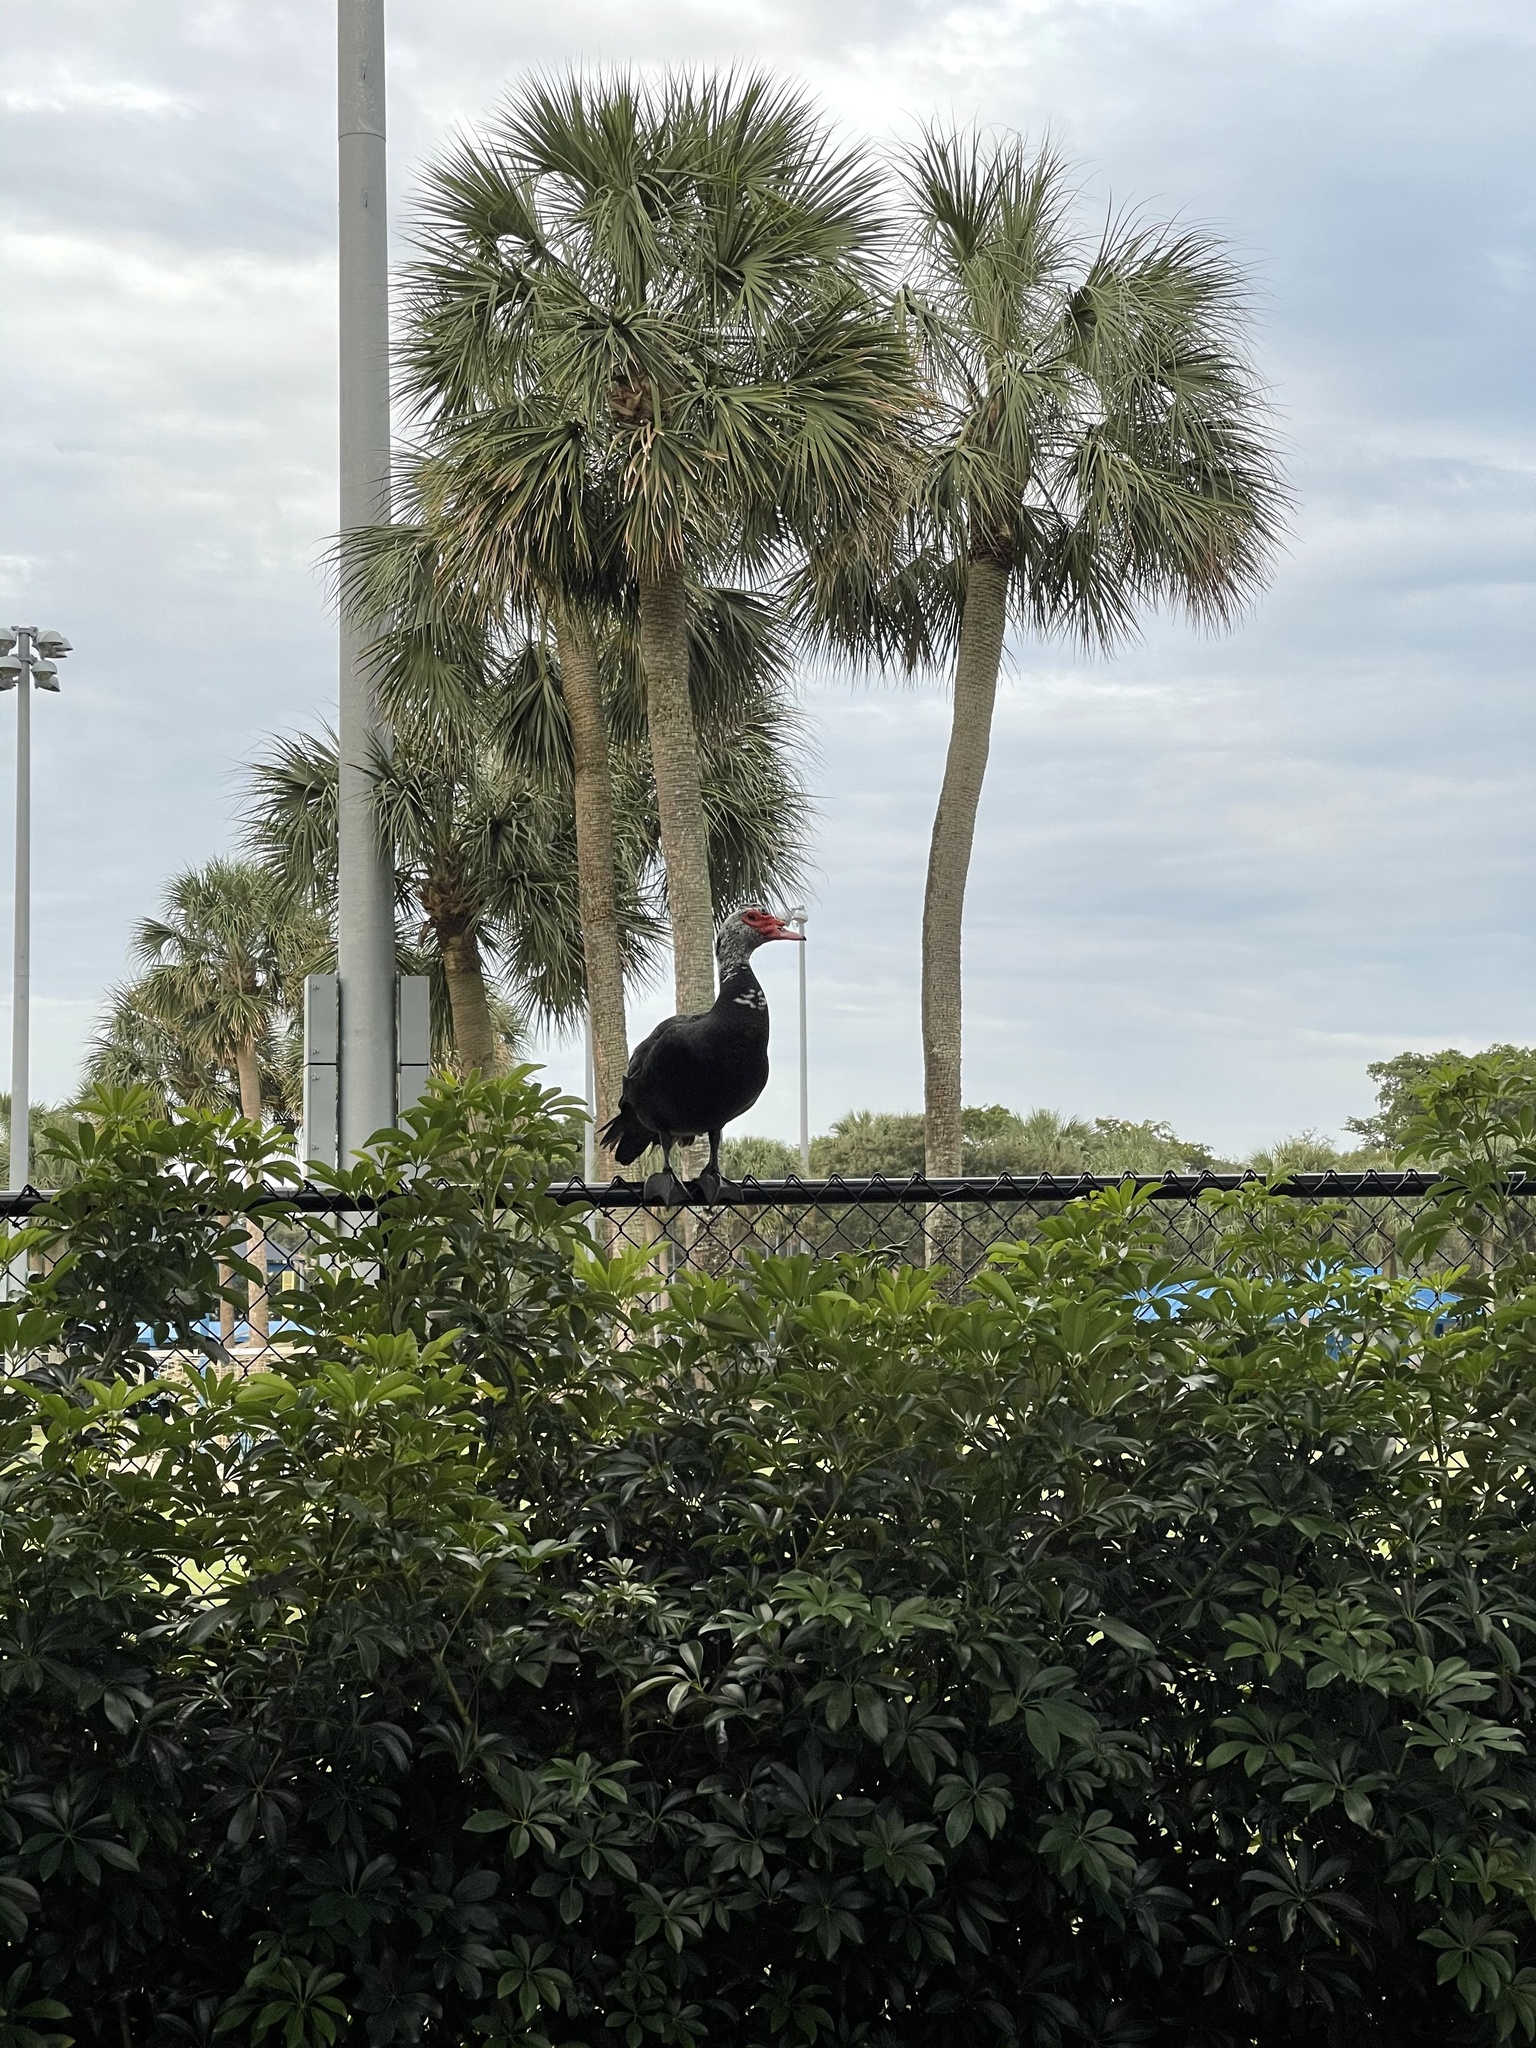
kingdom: Animalia
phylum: Chordata
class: Aves
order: Anseriformes
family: Anatidae
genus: Cairina
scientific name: Cairina moschata
